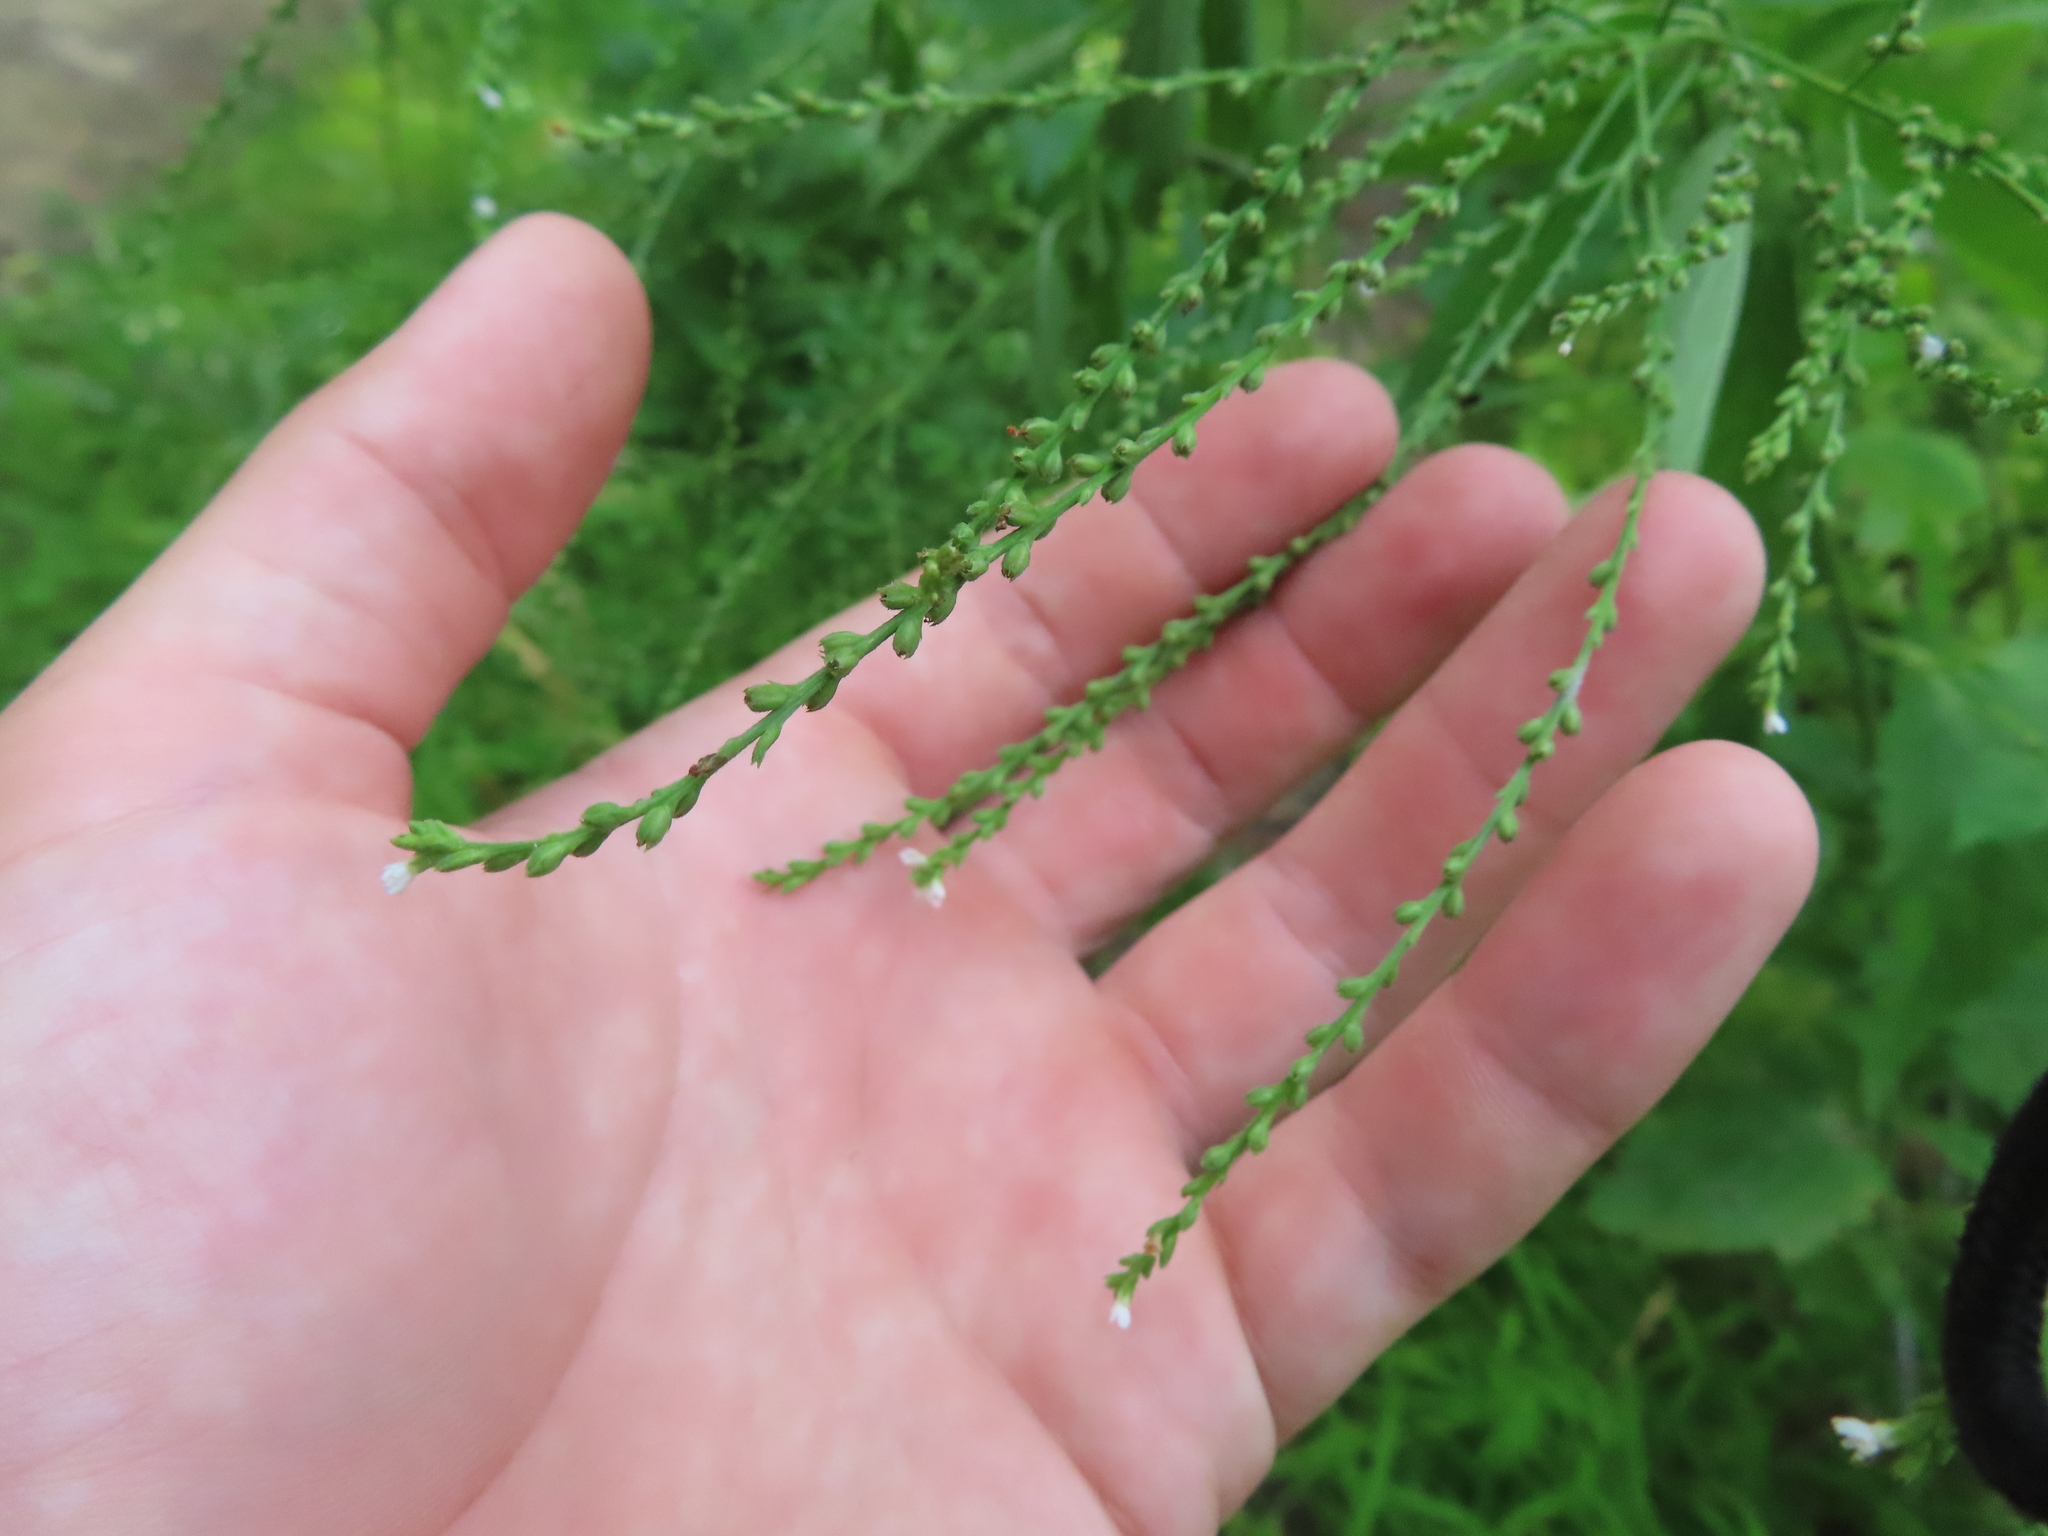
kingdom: Plantae
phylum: Tracheophyta
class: Magnoliopsida
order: Lamiales
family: Verbenaceae
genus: Verbena
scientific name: Verbena urticifolia
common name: Nettle-leaved vervain
